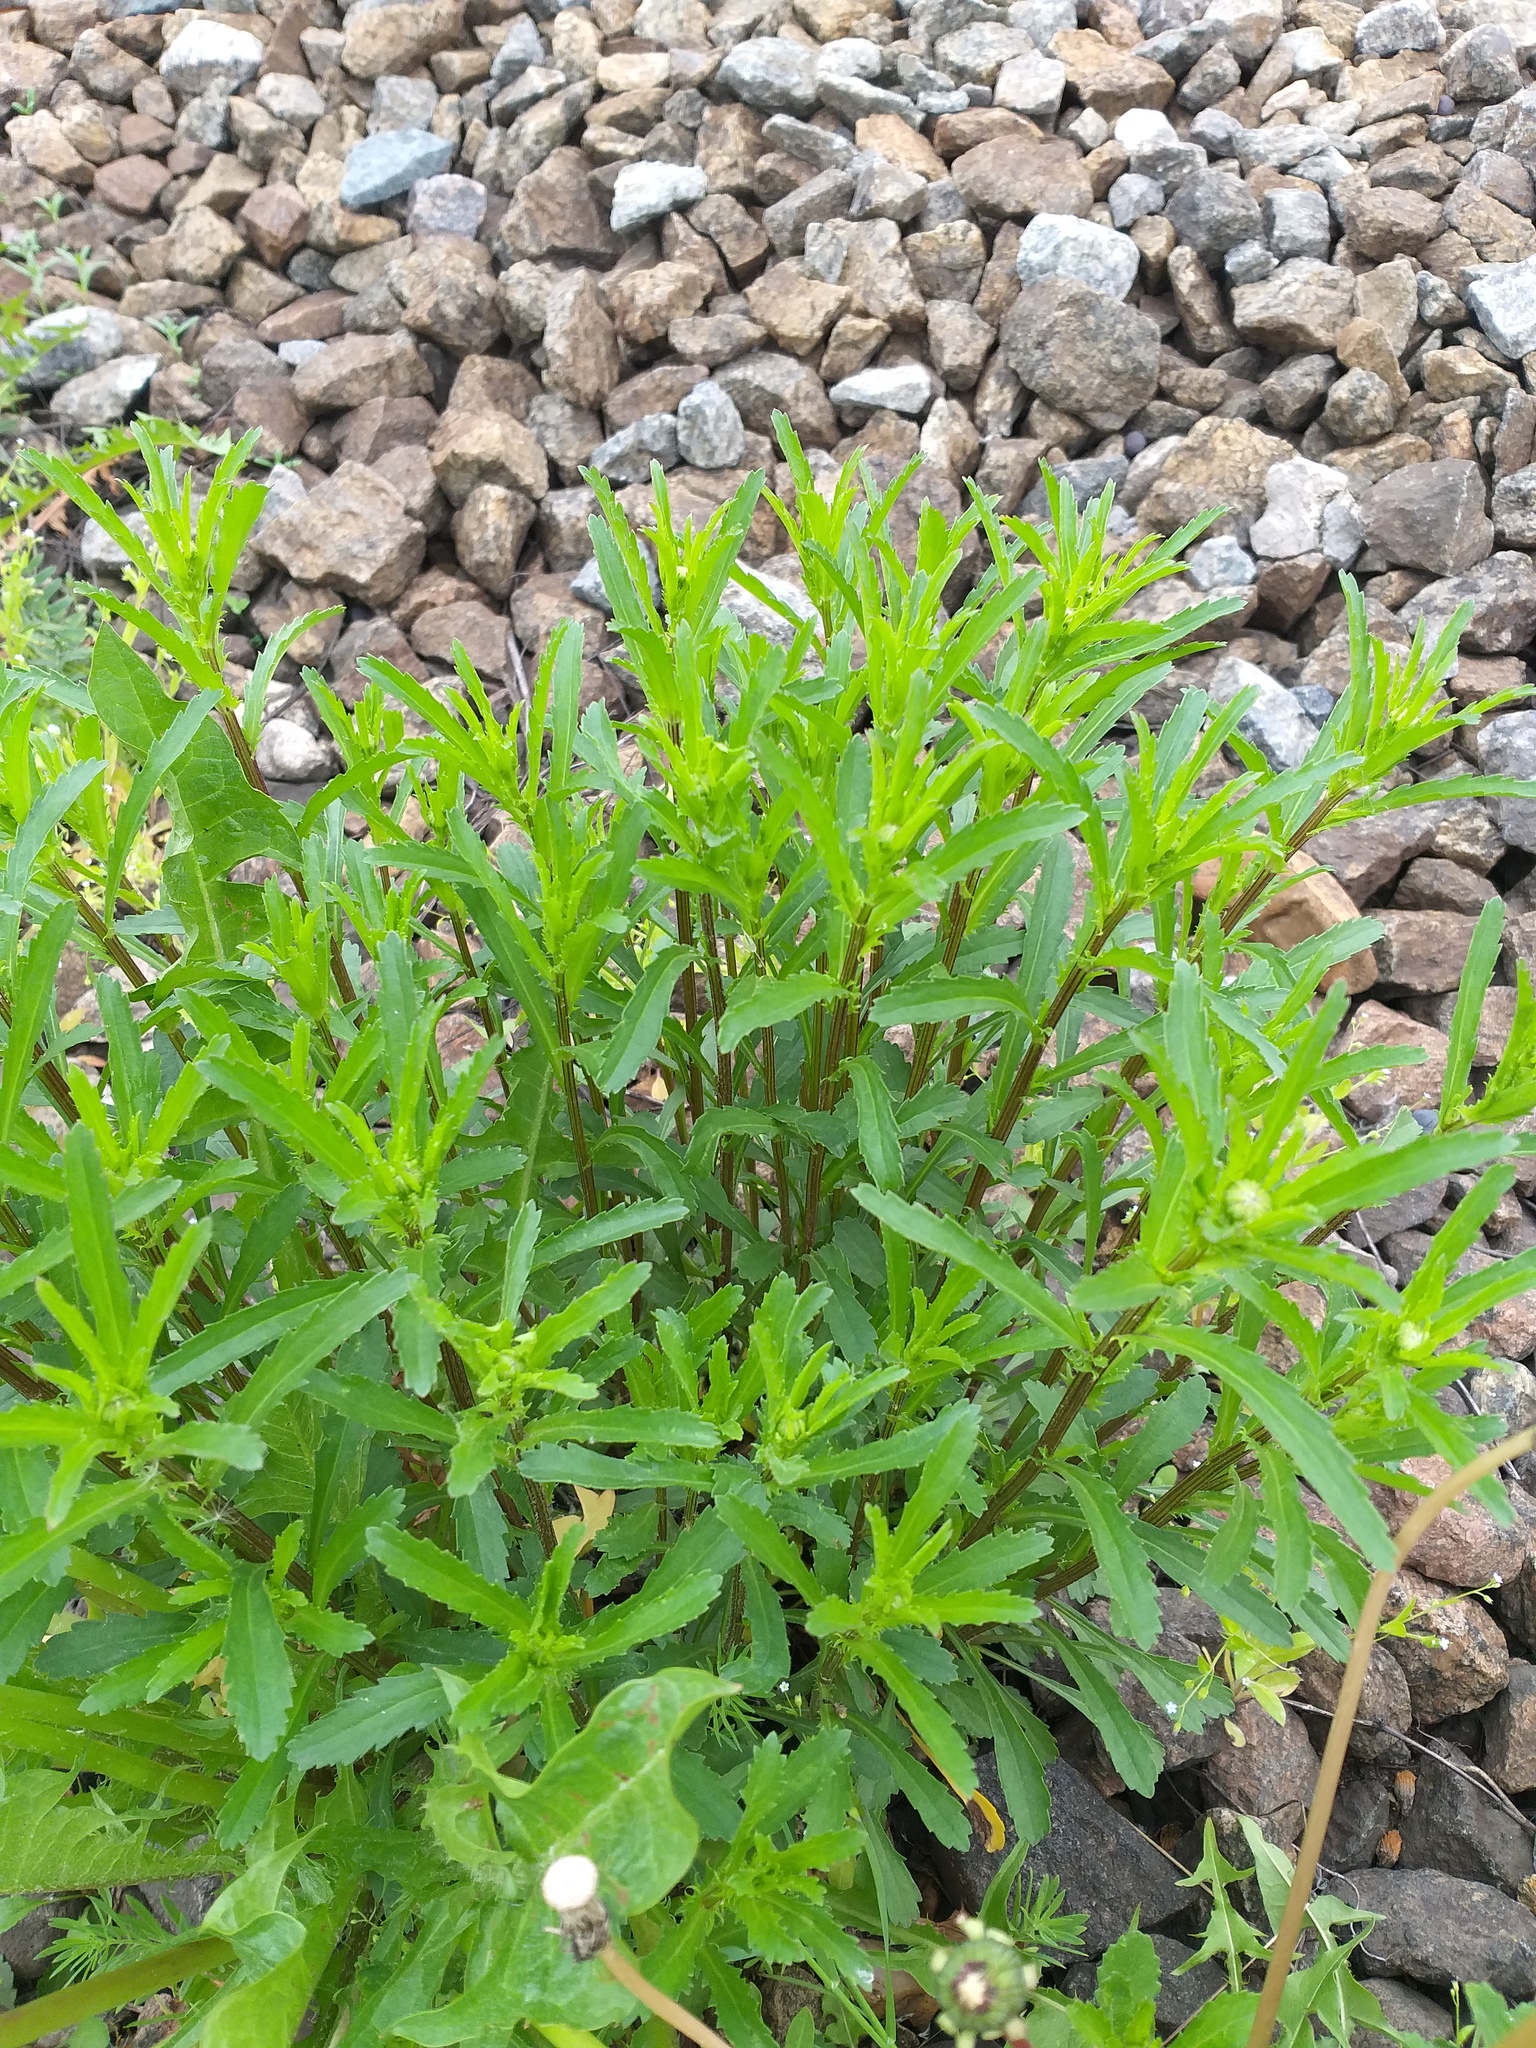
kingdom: Plantae
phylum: Tracheophyta
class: Magnoliopsida
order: Asterales
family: Asteraceae
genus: Leucanthemum
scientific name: Leucanthemum vulgare
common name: Oxeye daisy
